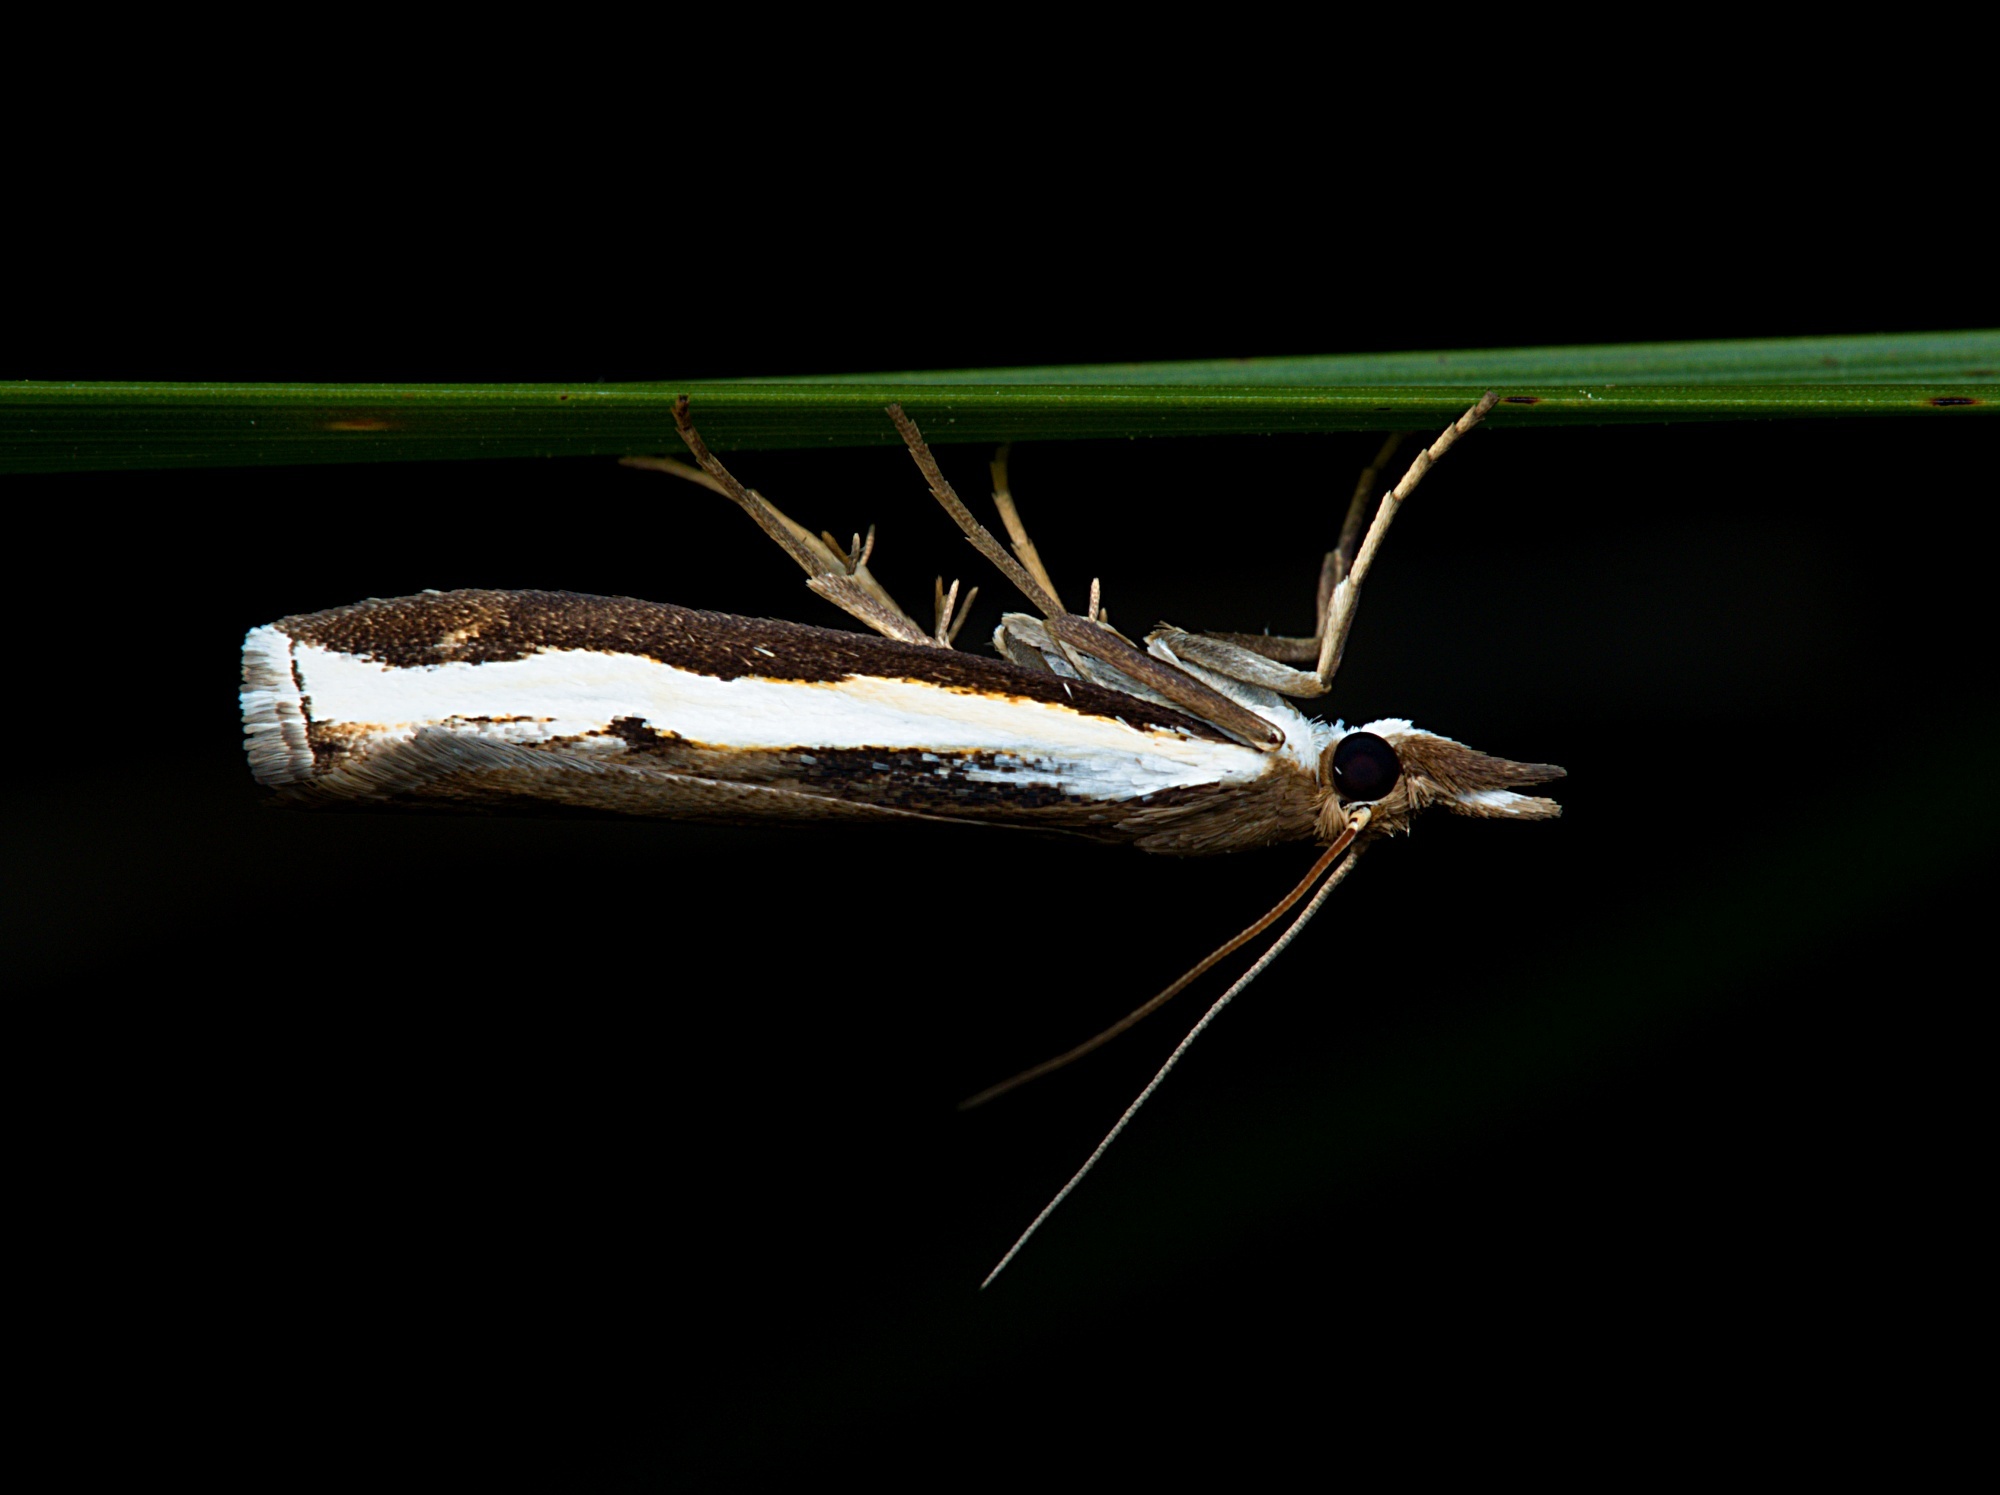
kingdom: Animalia
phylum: Arthropoda
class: Insecta
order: Lepidoptera
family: Crambidae
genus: Orocrambus
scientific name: Orocrambus flexuosellus
